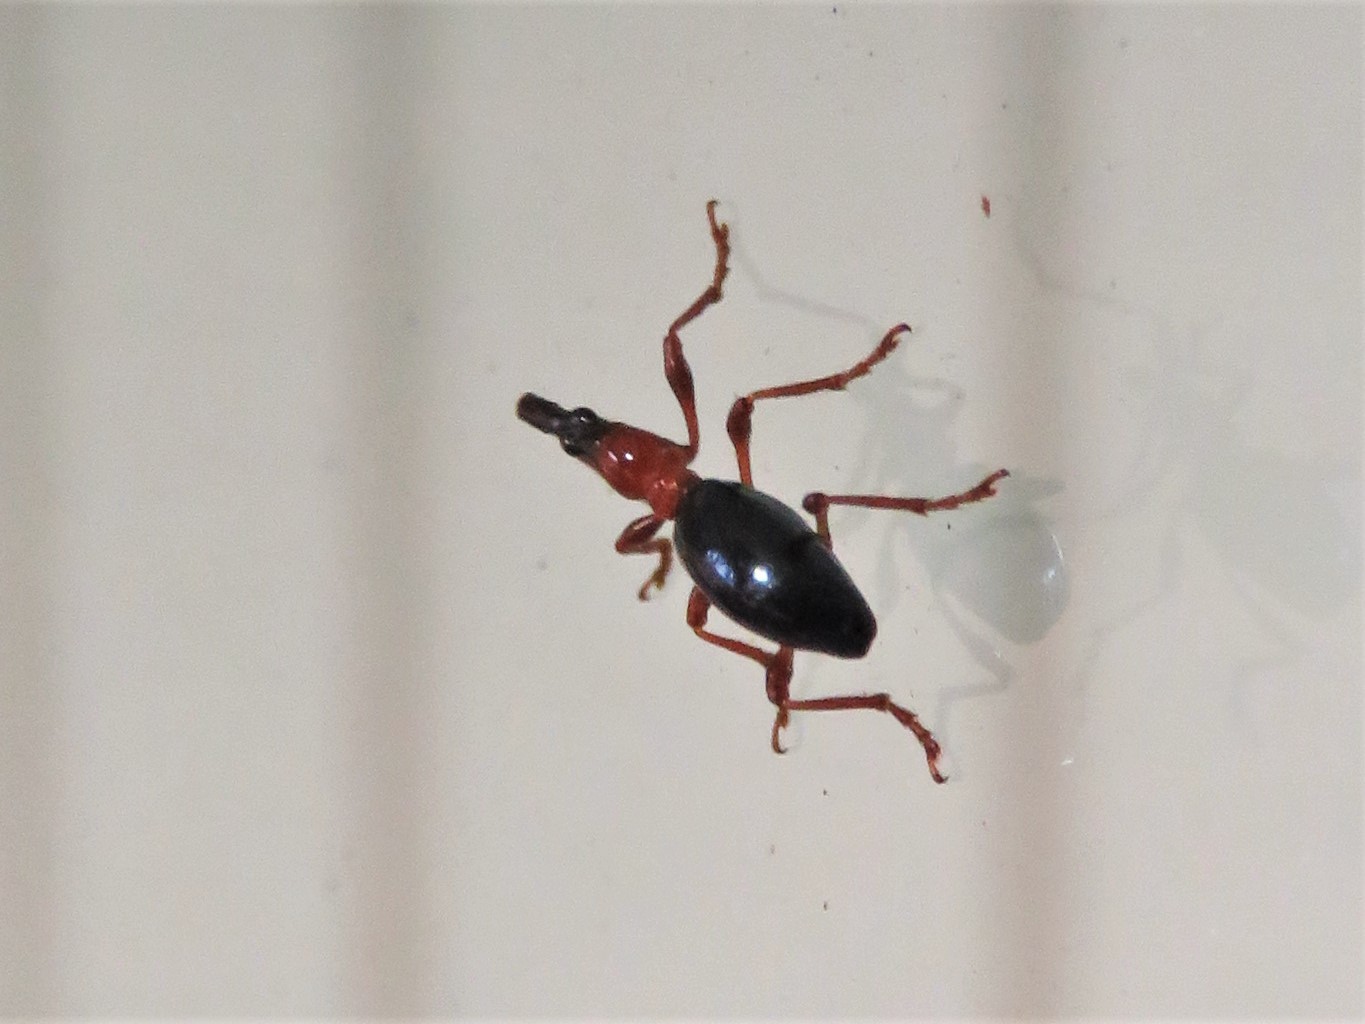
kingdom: Animalia
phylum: Arthropoda
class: Insecta
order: Coleoptera
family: Brentidae
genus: Cylas
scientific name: Cylas formicarius
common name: Sweetpotato weevil
